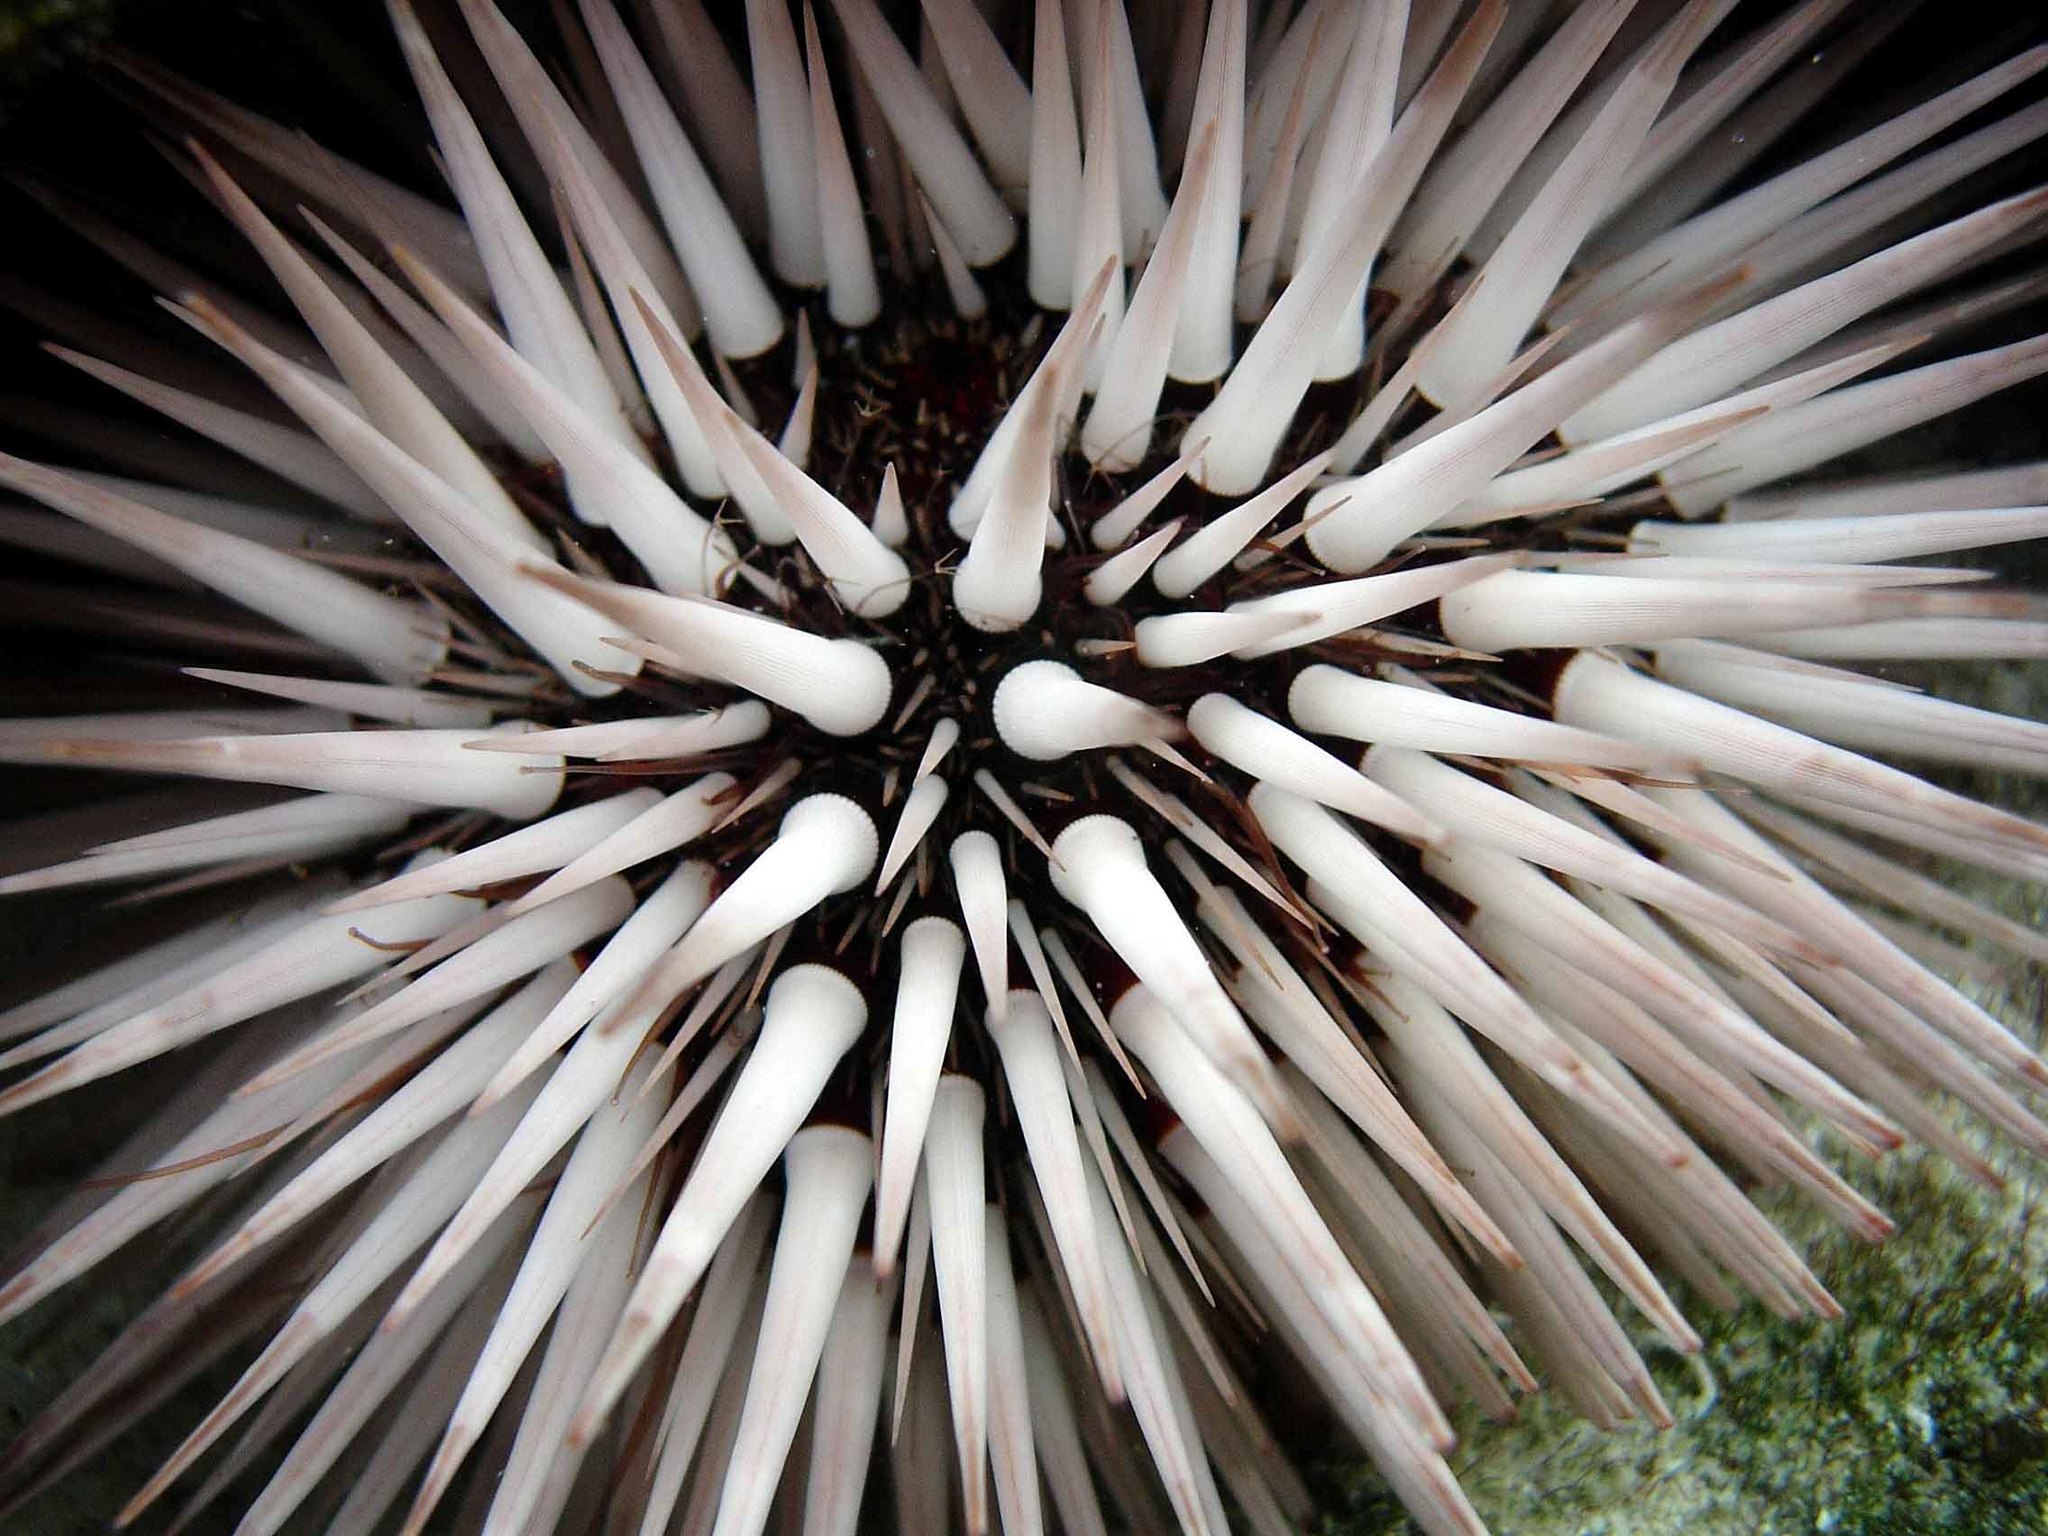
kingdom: Animalia
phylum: Echinodermata
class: Echinoidea
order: Camarodonta
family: Echinometridae
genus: Echinometra
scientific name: Echinometra mathaei
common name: Rock-boring urchin
